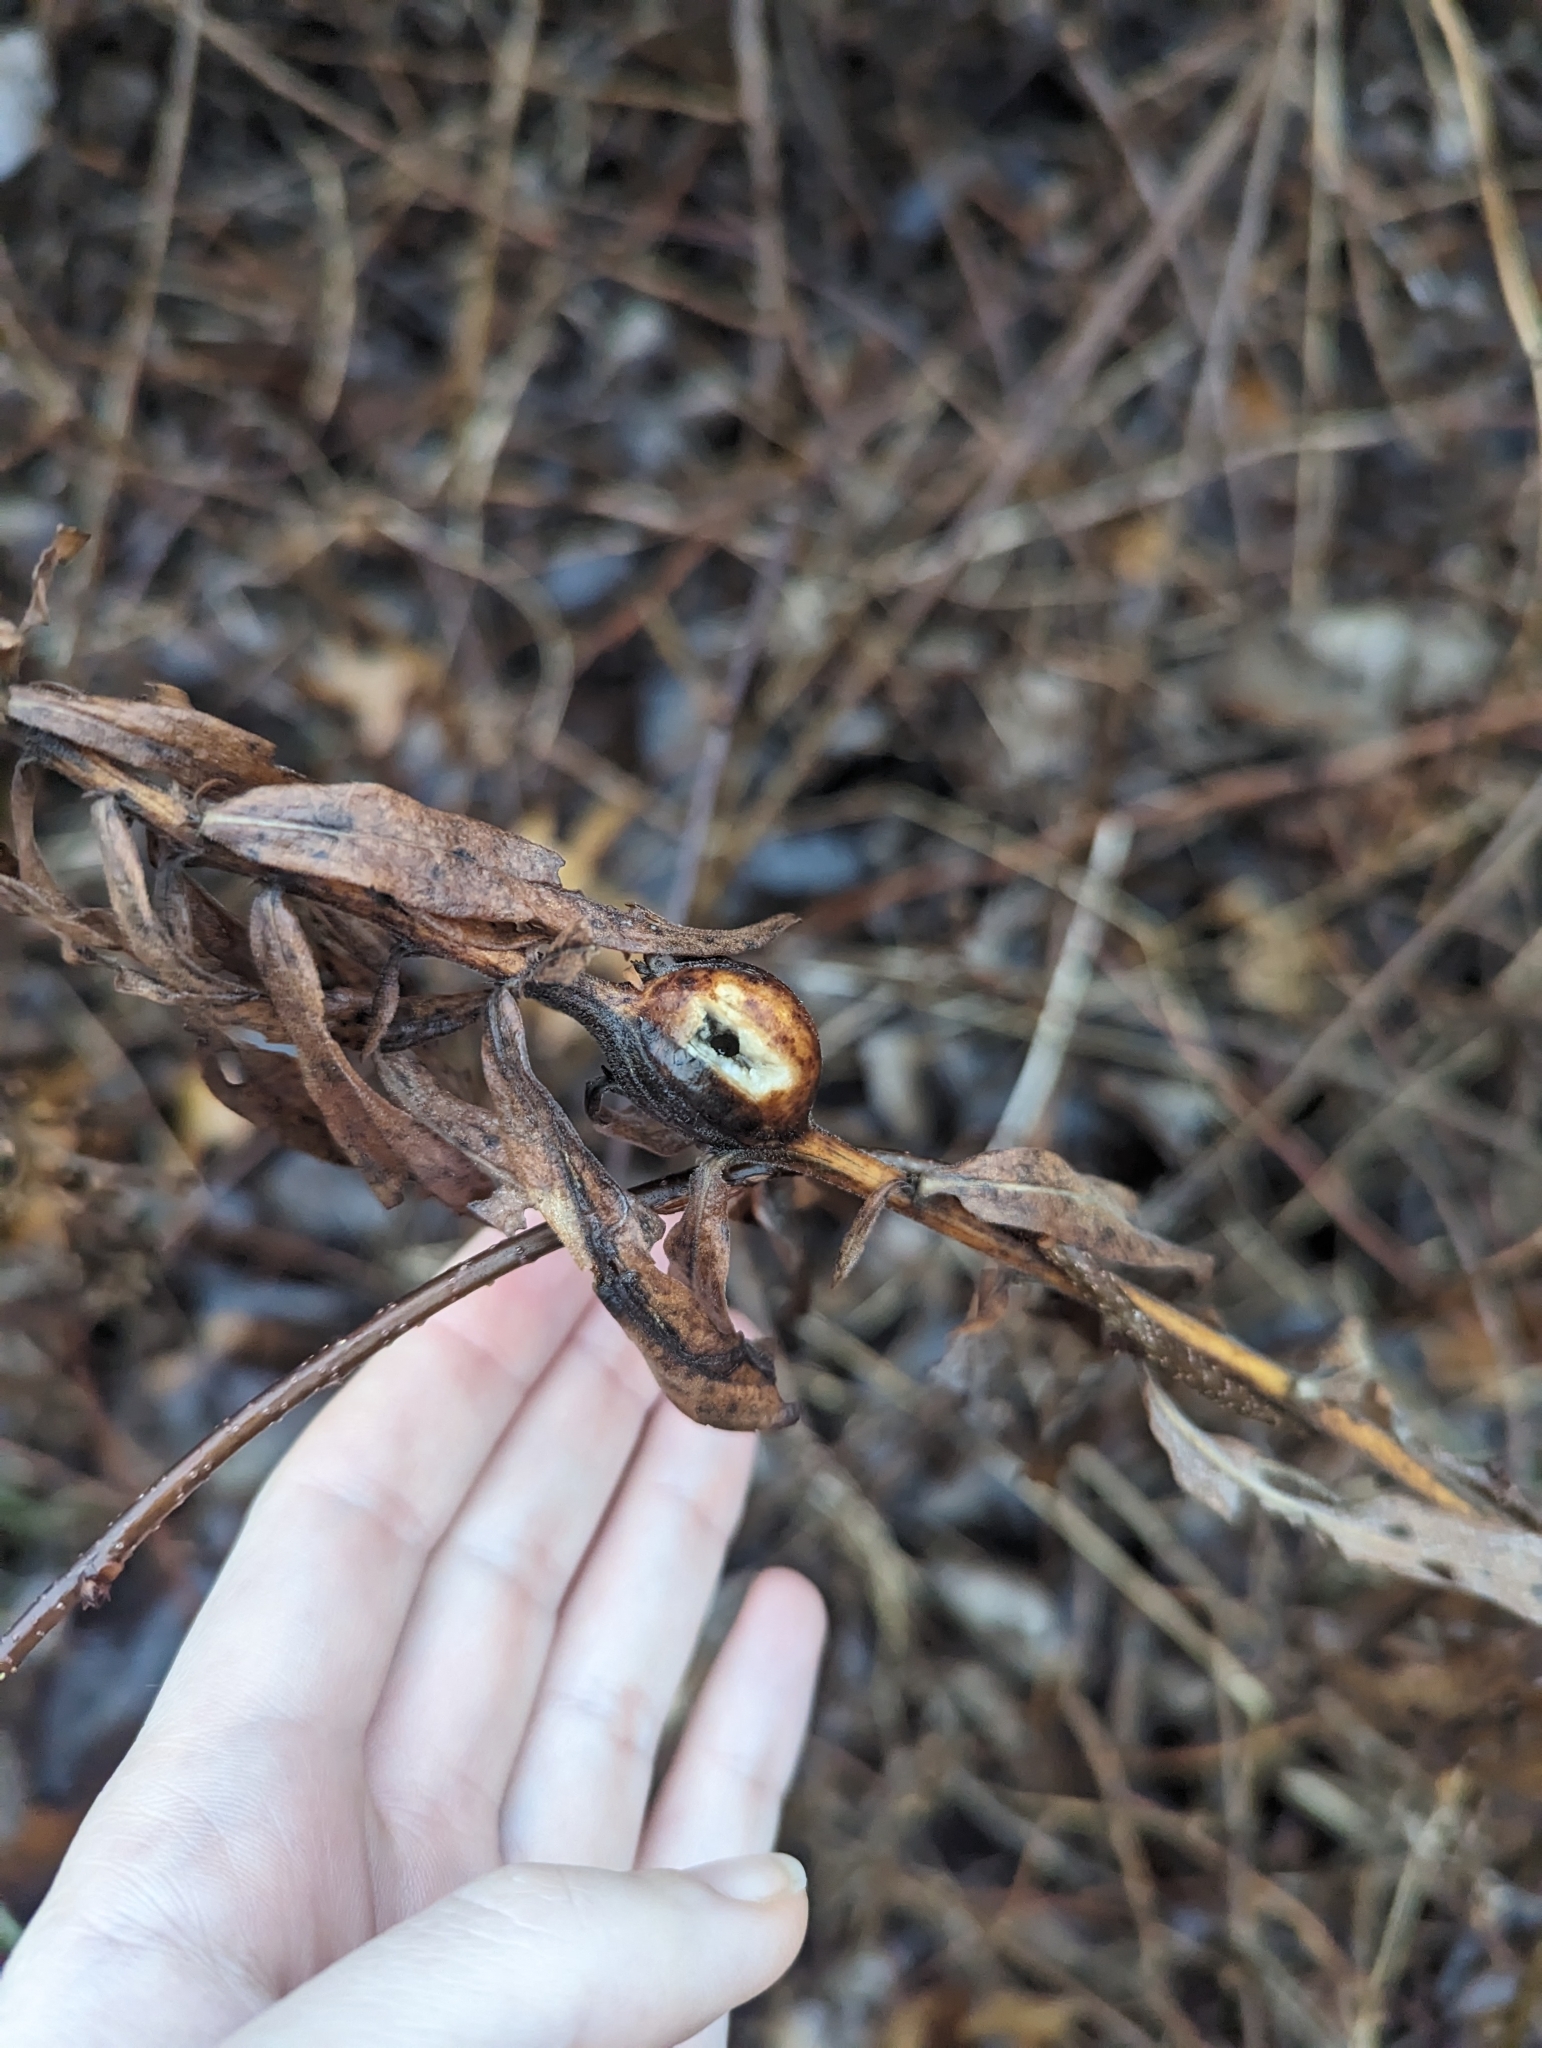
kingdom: Animalia
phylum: Arthropoda
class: Insecta
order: Diptera
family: Tephritidae
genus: Eurosta
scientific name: Eurosta solidaginis
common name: Goldenrod gall fly
